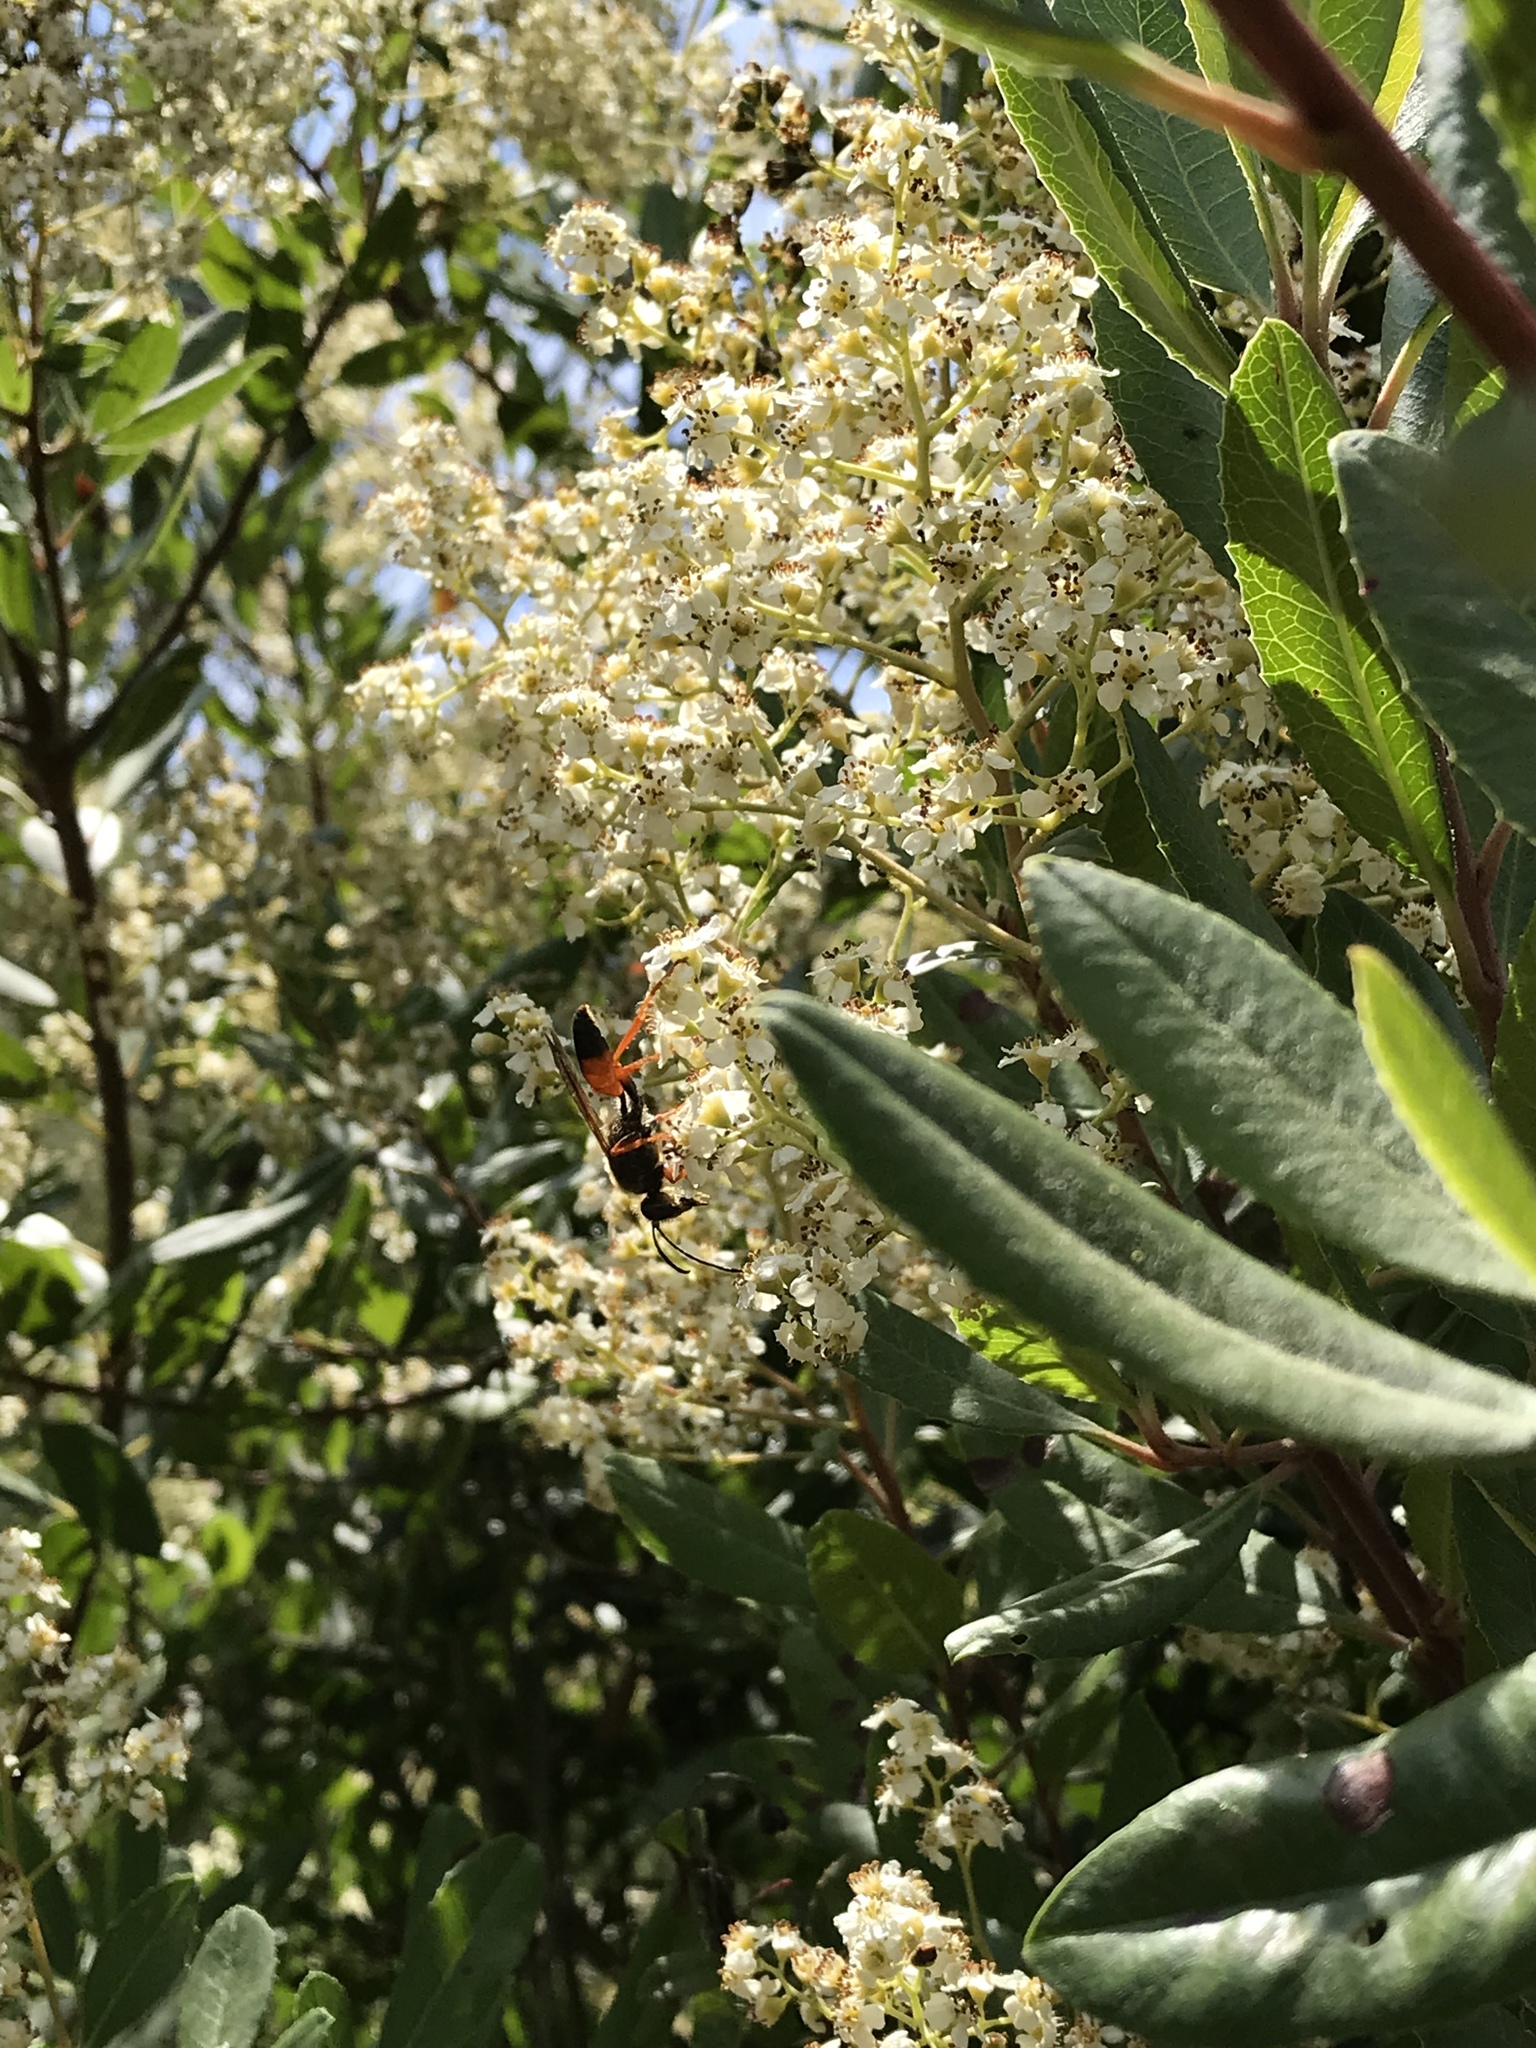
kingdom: Animalia
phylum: Arthropoda
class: Insecta
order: Hymenoptera
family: Sphecidae
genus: Sphex
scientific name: Sphex ichneumoneus
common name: Great golden digger wasp
